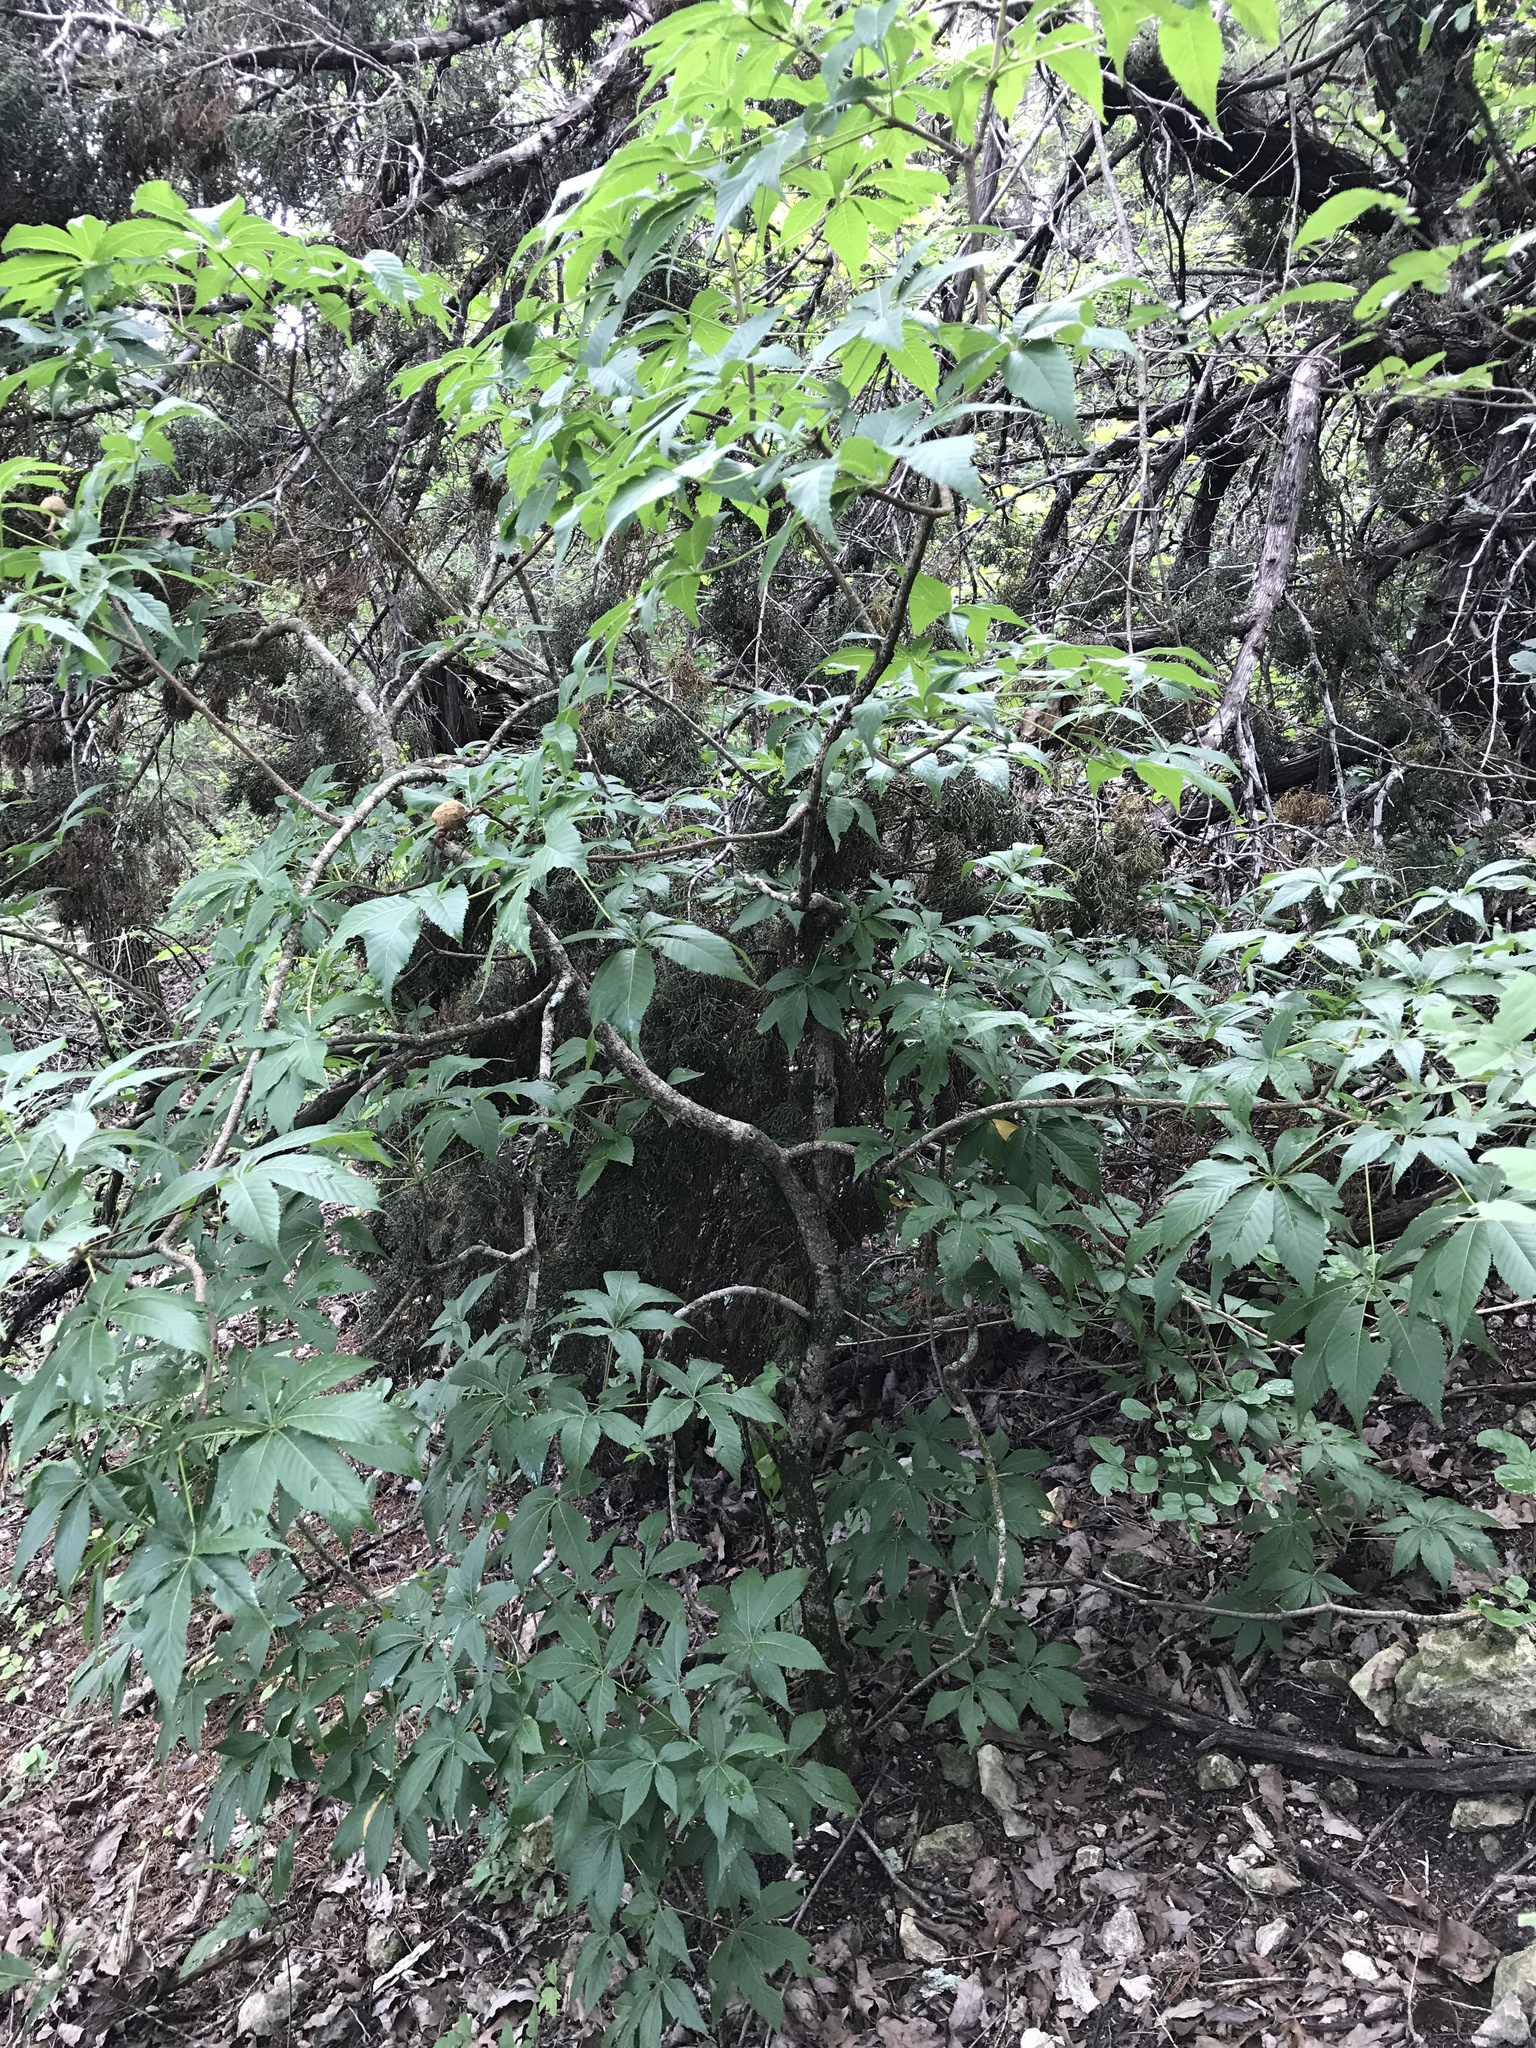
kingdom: Plantae
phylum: Tracheophyta
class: Magnoliopsida
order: Sapindales
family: Sapindaceae
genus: Aesculus
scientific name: Aesculus glabra
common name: Ohio buckeye
